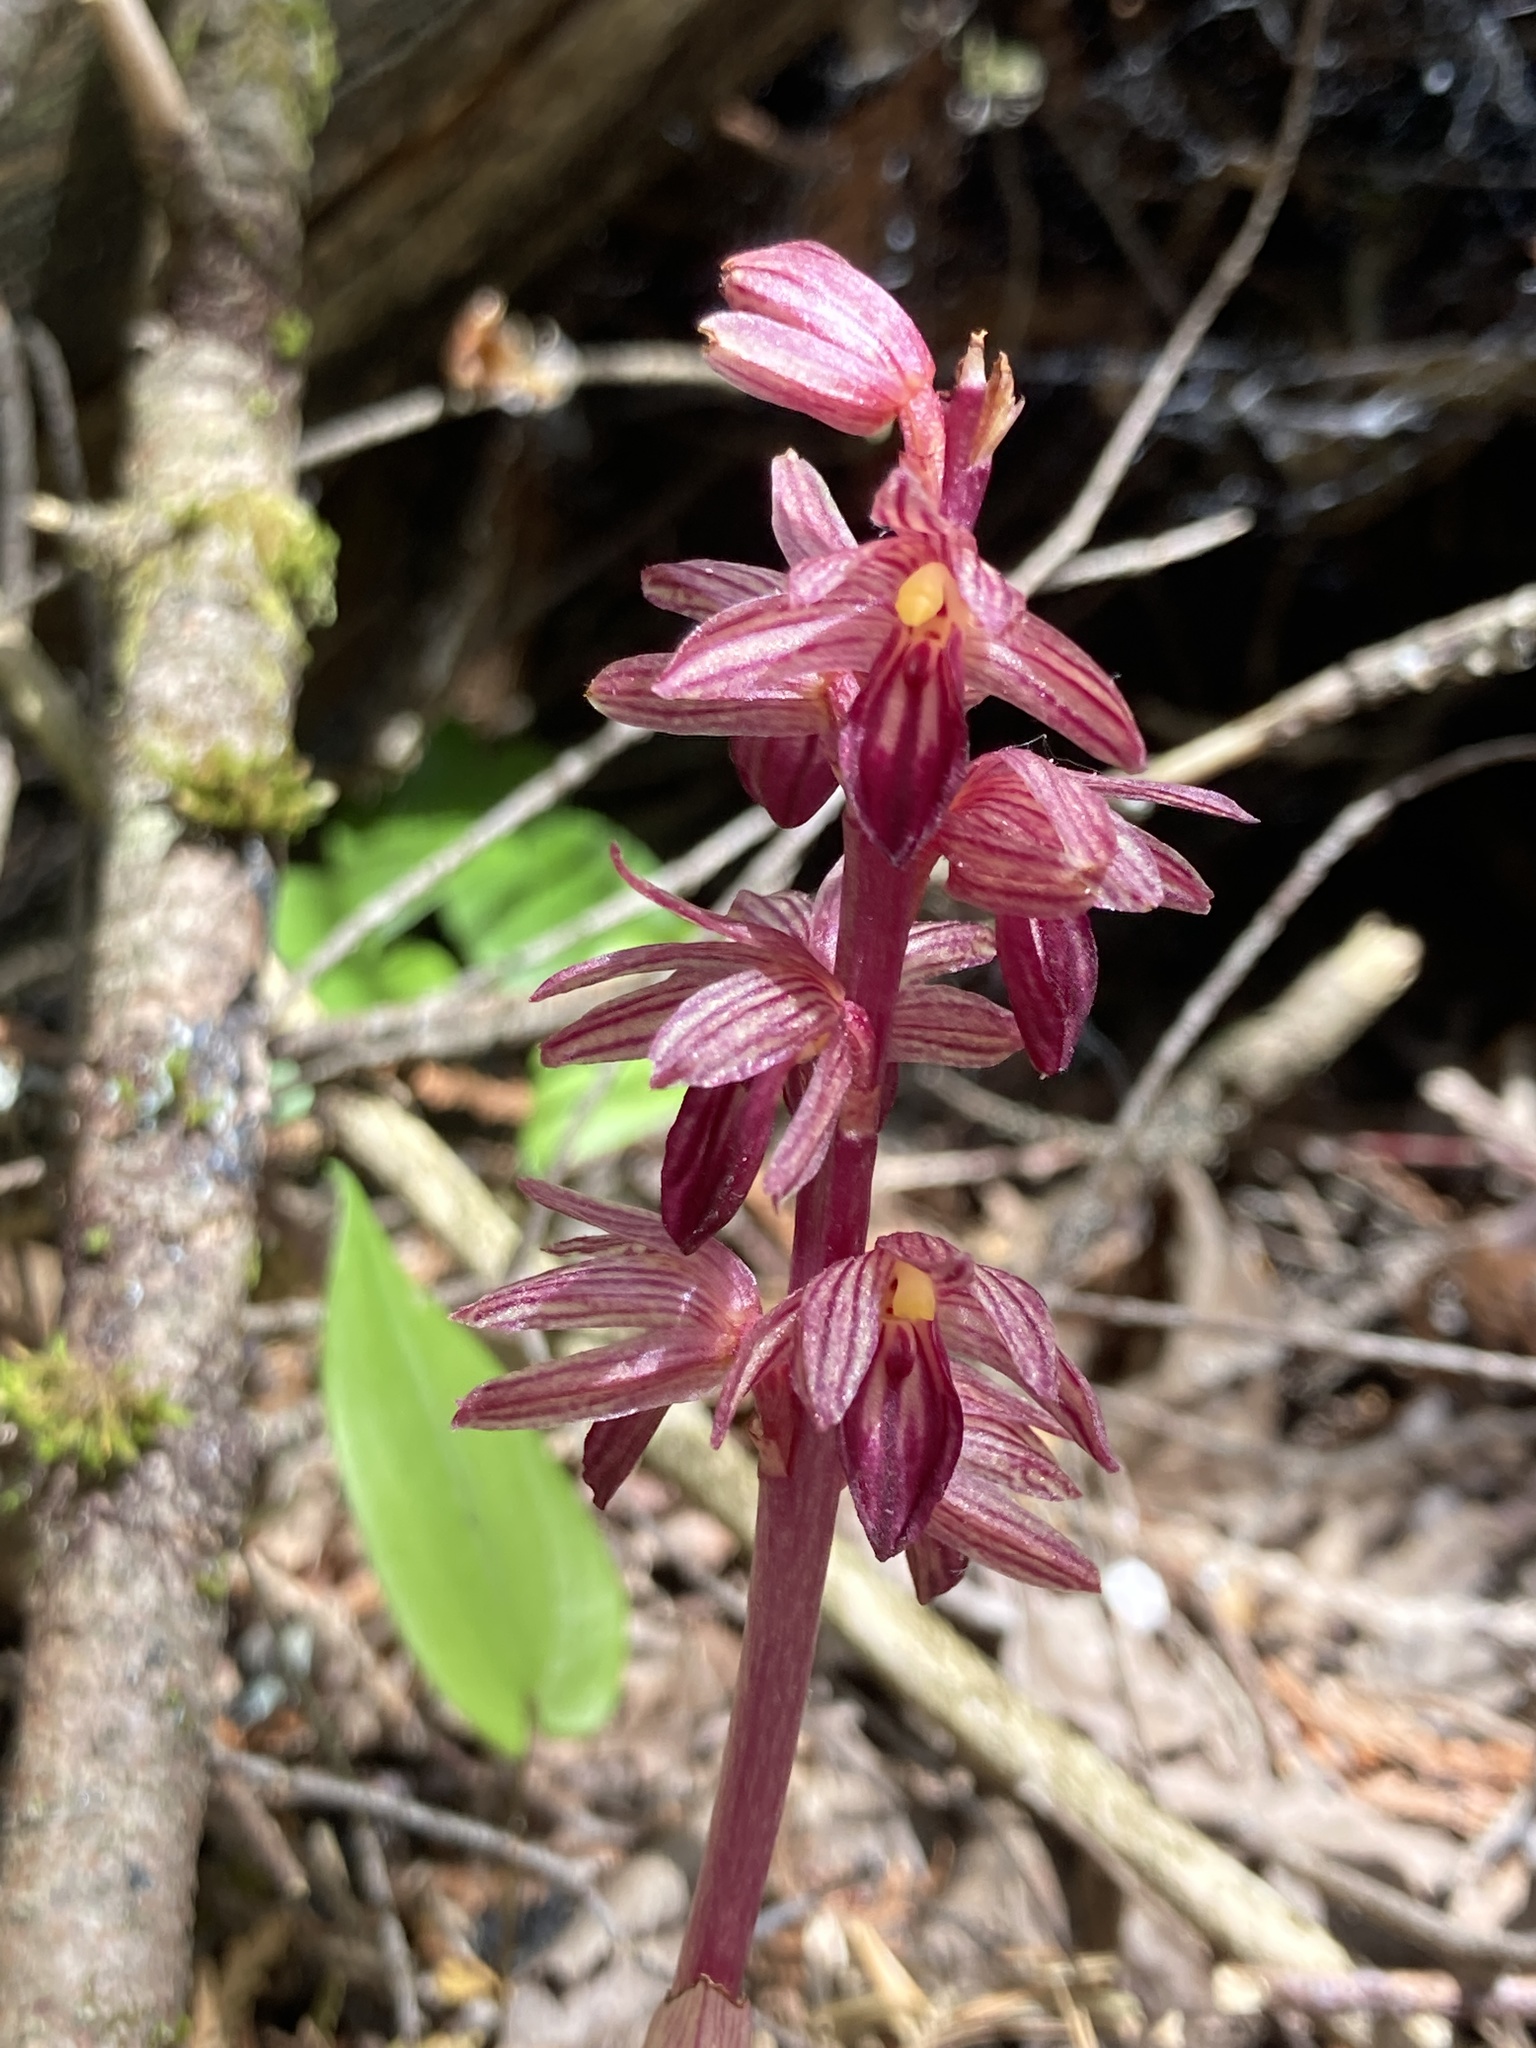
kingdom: Plantae
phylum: Tracheophyta
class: Liliopsida
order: Asparagales
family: Orchidaceae
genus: Corallorhiza
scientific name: Corallorhiza striata
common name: Hooded coralroot
